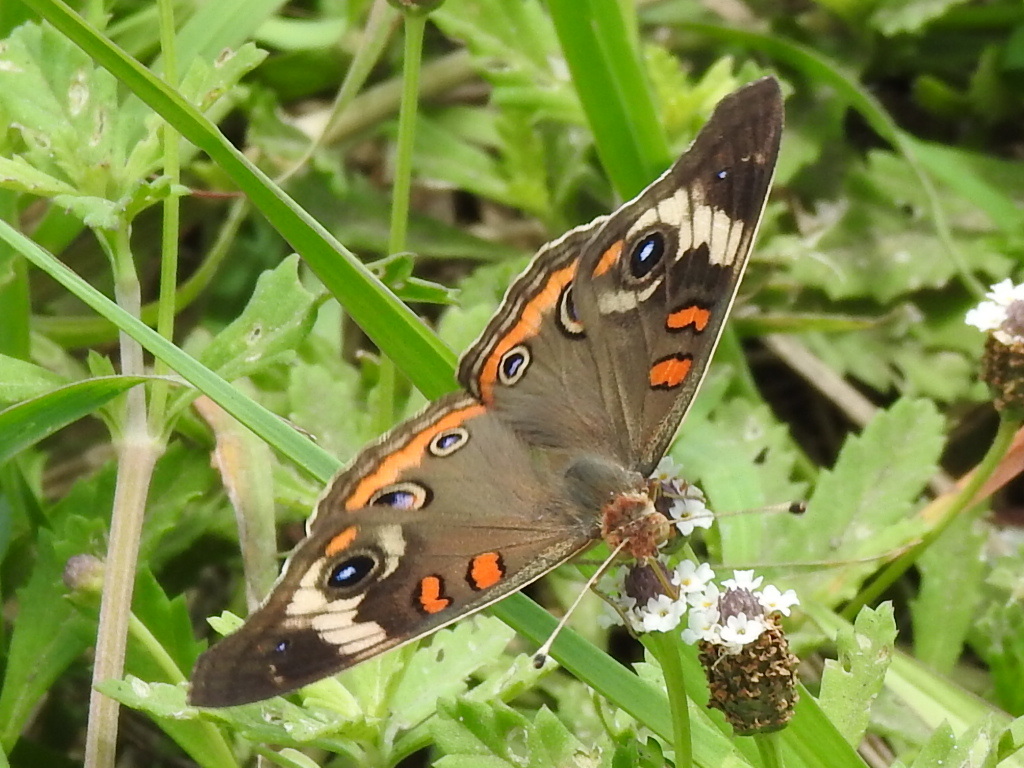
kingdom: Animalia
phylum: Arthropoda
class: Insecta
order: Lepidoptera
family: Nymphalidae
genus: Junonia
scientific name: Junonia coenia
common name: Common buckeye
